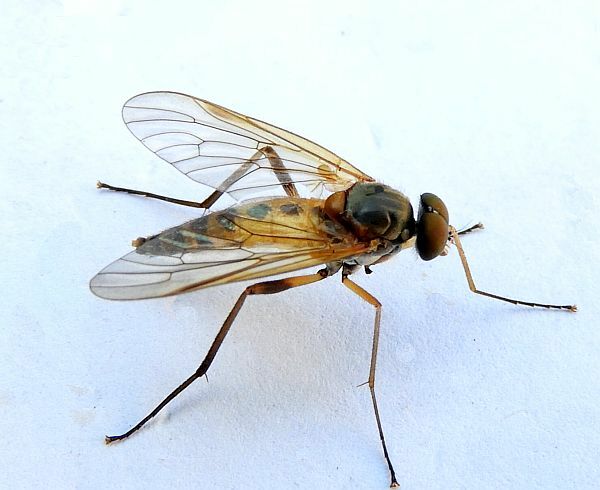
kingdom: Animalia
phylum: Arthropoda
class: Insecta
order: Diptera
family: Rhagionidae
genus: Rhagio
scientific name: Rhagio vertebratus
